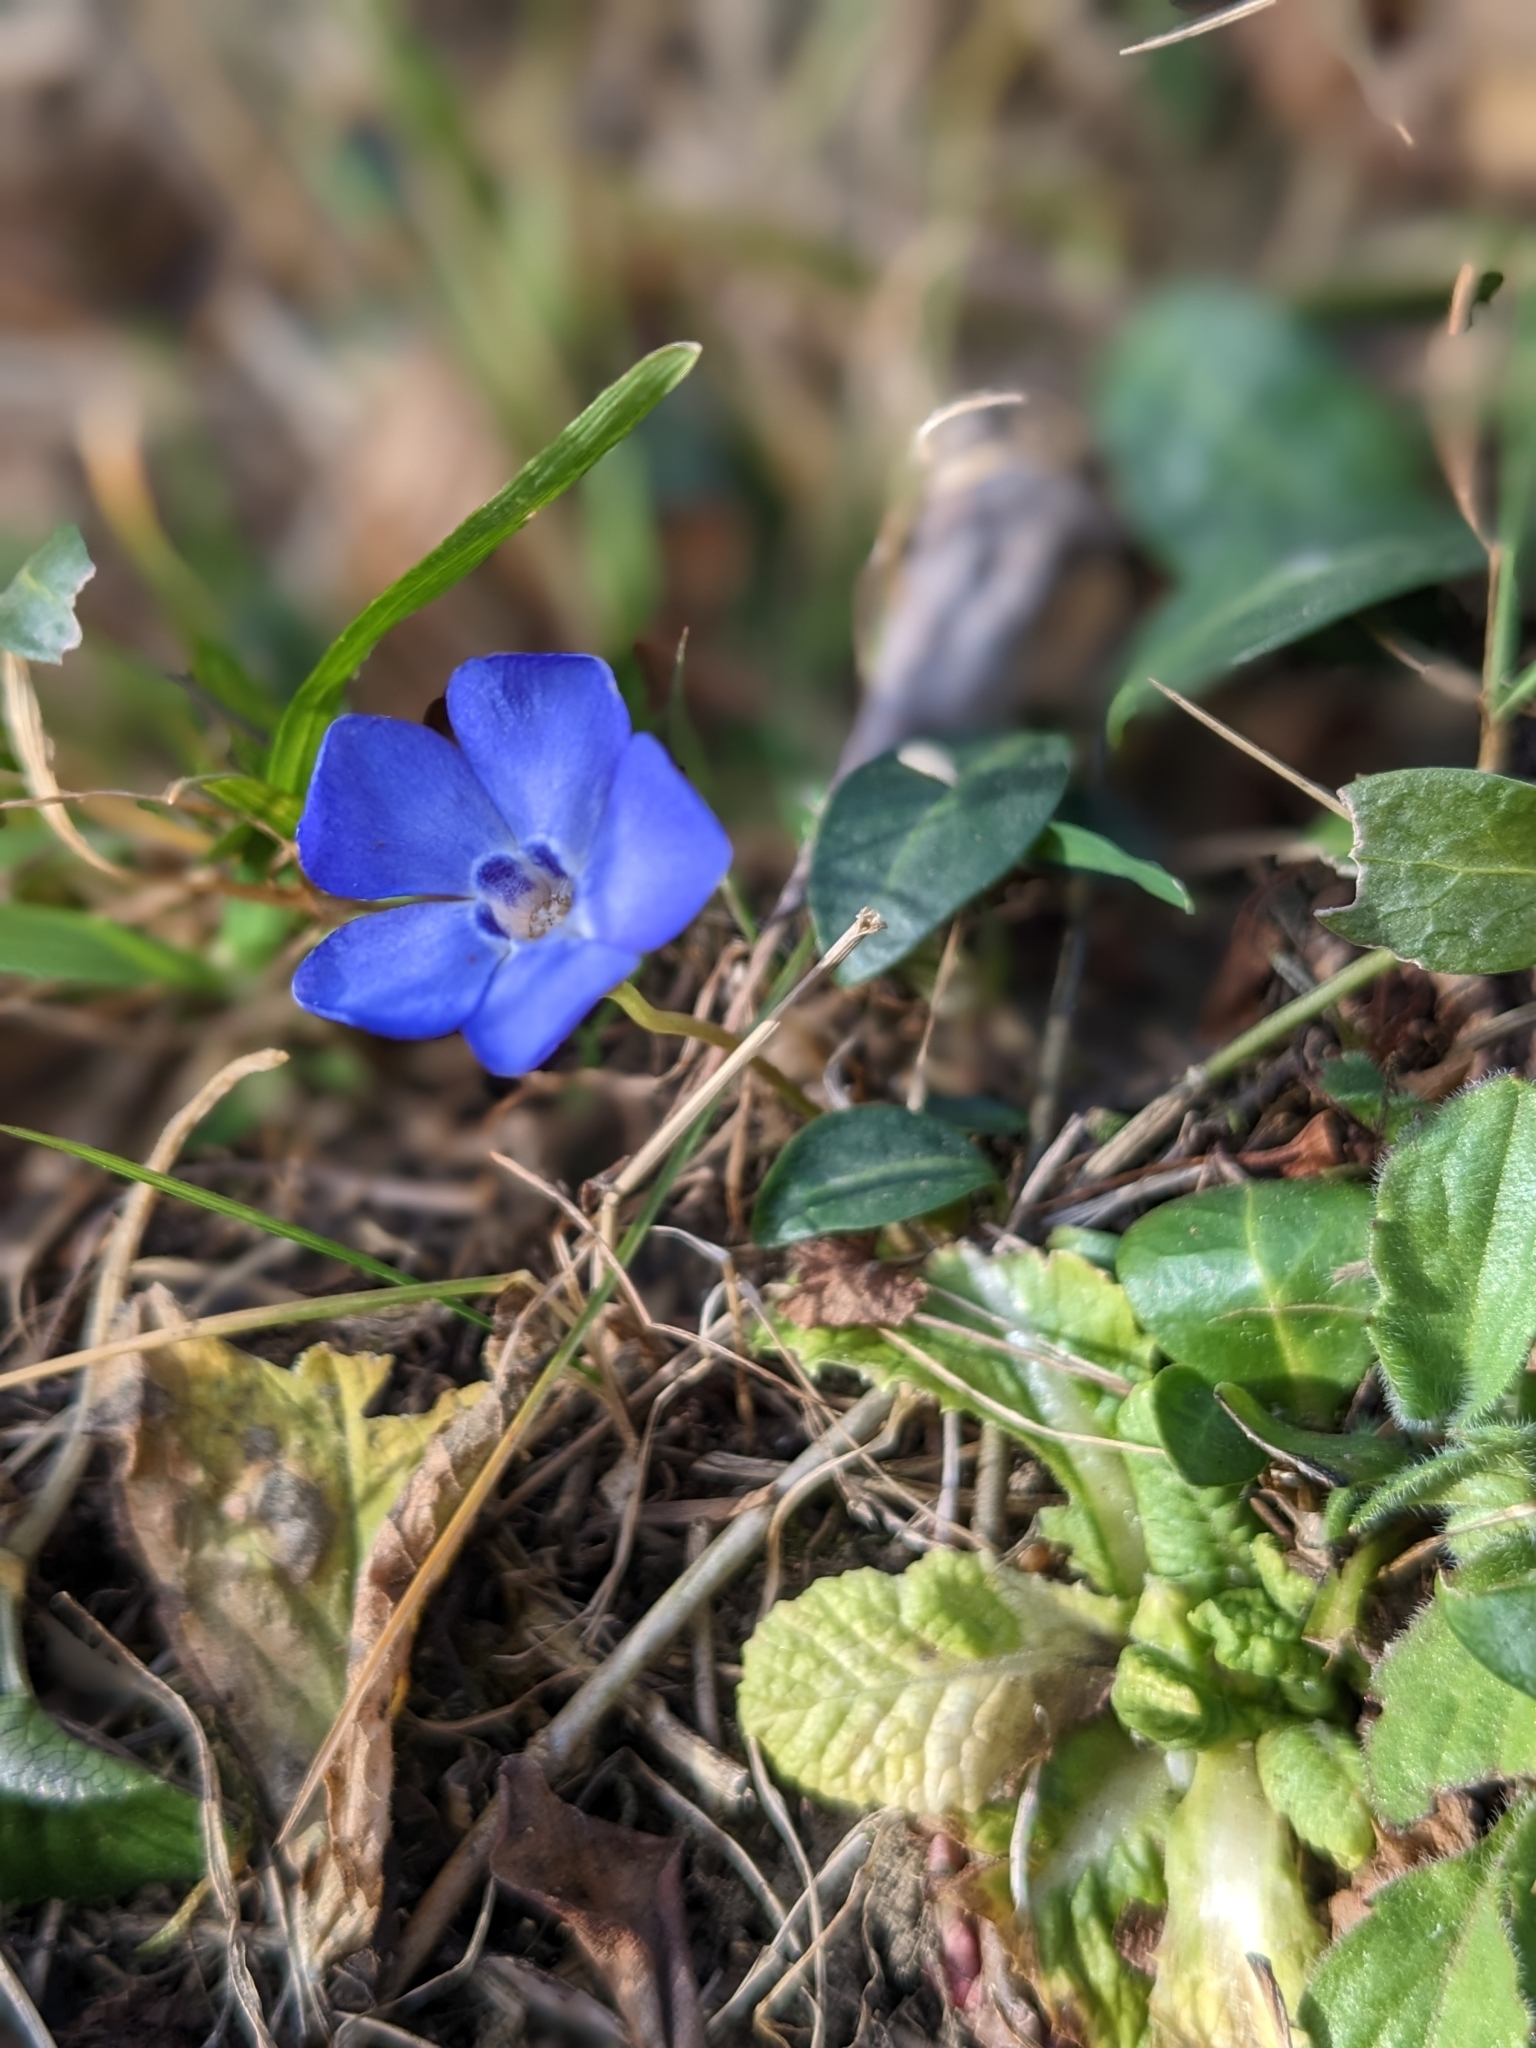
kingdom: Plantae
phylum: Tracheophyta
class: Magnoliopsida
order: Gentianales
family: Apocynaceae
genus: Vinca
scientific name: Vinca minor
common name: Lesser periwinkle
